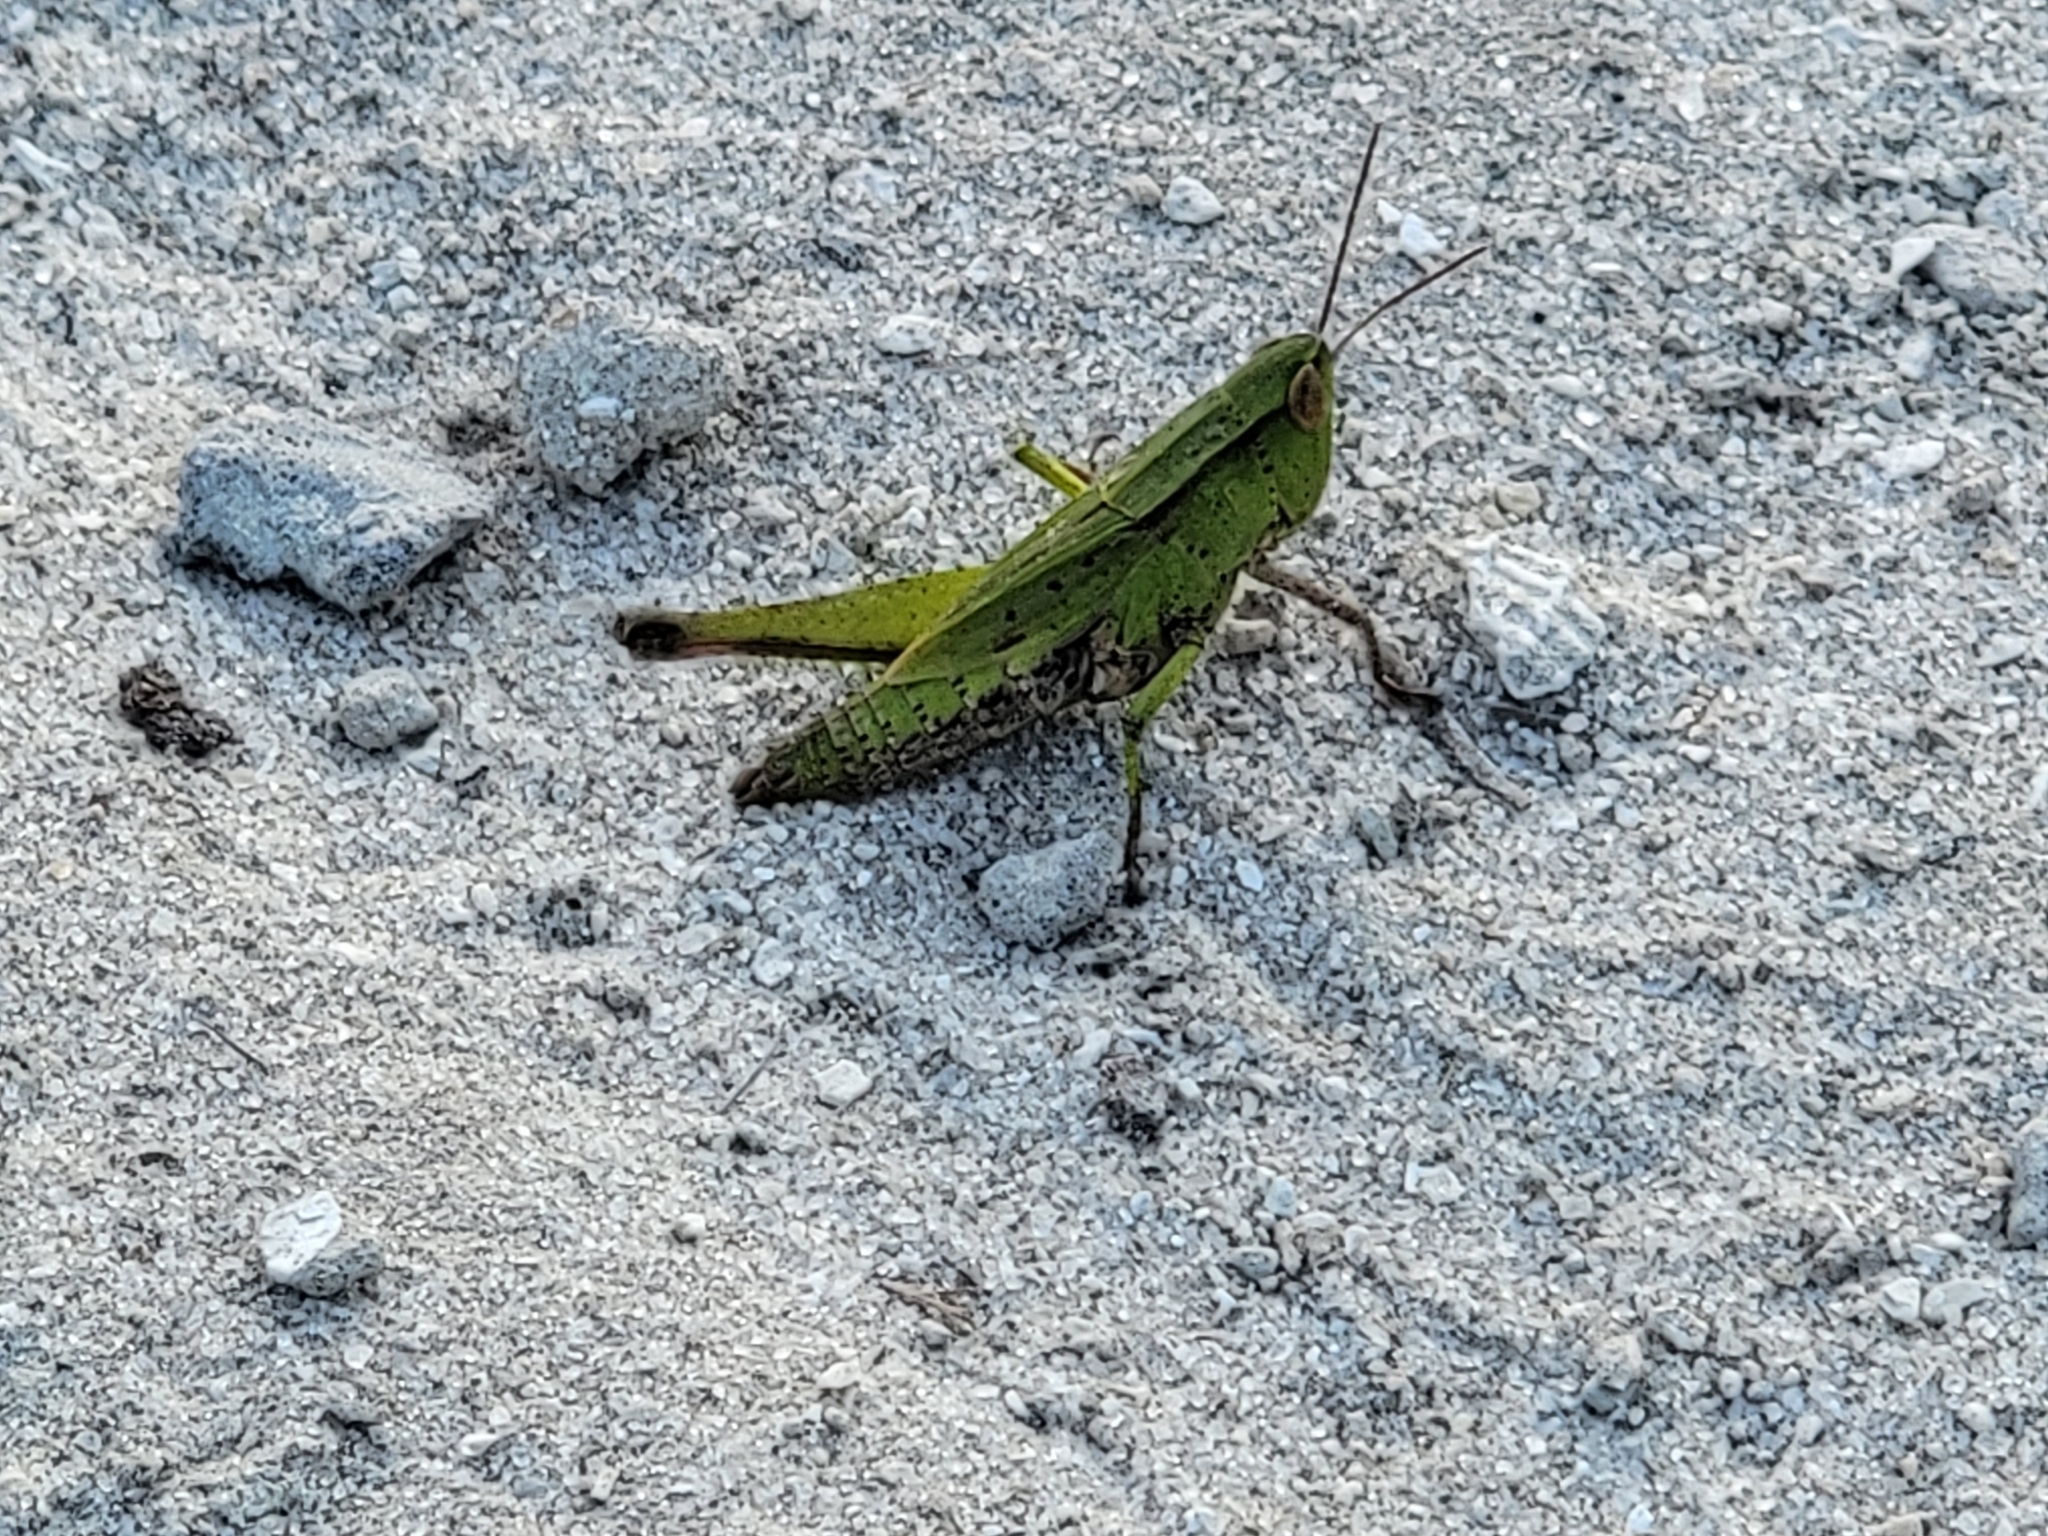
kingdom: Animalia
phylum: Arthropoda
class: Insecta
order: Orthoptera
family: Acrididae
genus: Dichromorpha
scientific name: Dichromorpha viridis
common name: Short-winged green grasshopper
